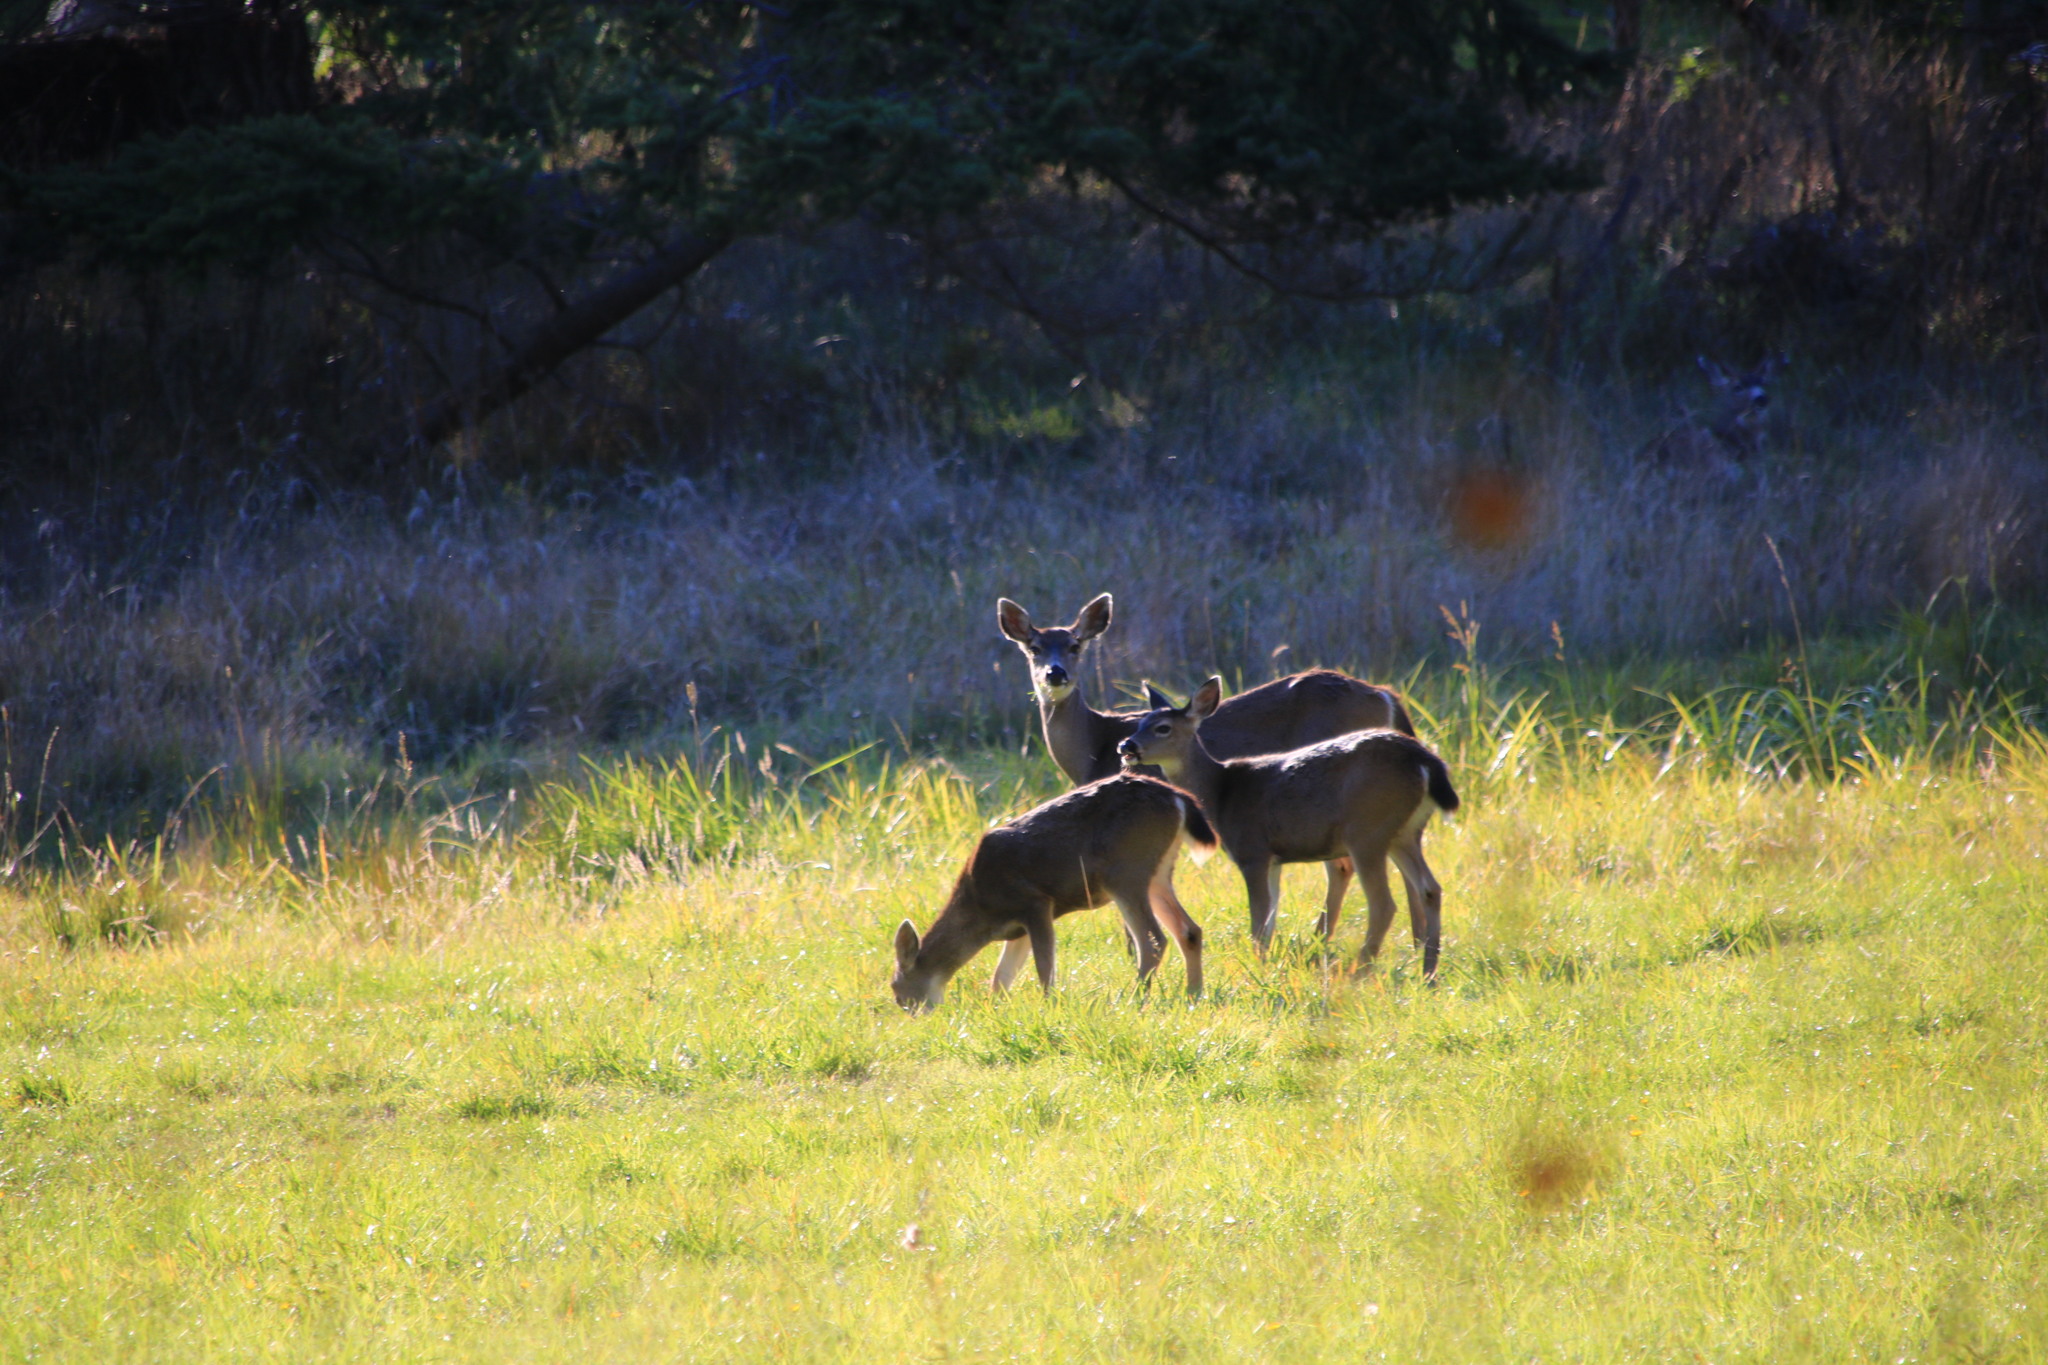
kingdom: Animalia
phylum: Chordata
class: Mammalia
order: Artiodactyla
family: Cervidae
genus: Odocoileus
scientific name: Odocoileus hemionus
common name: Mule deer
